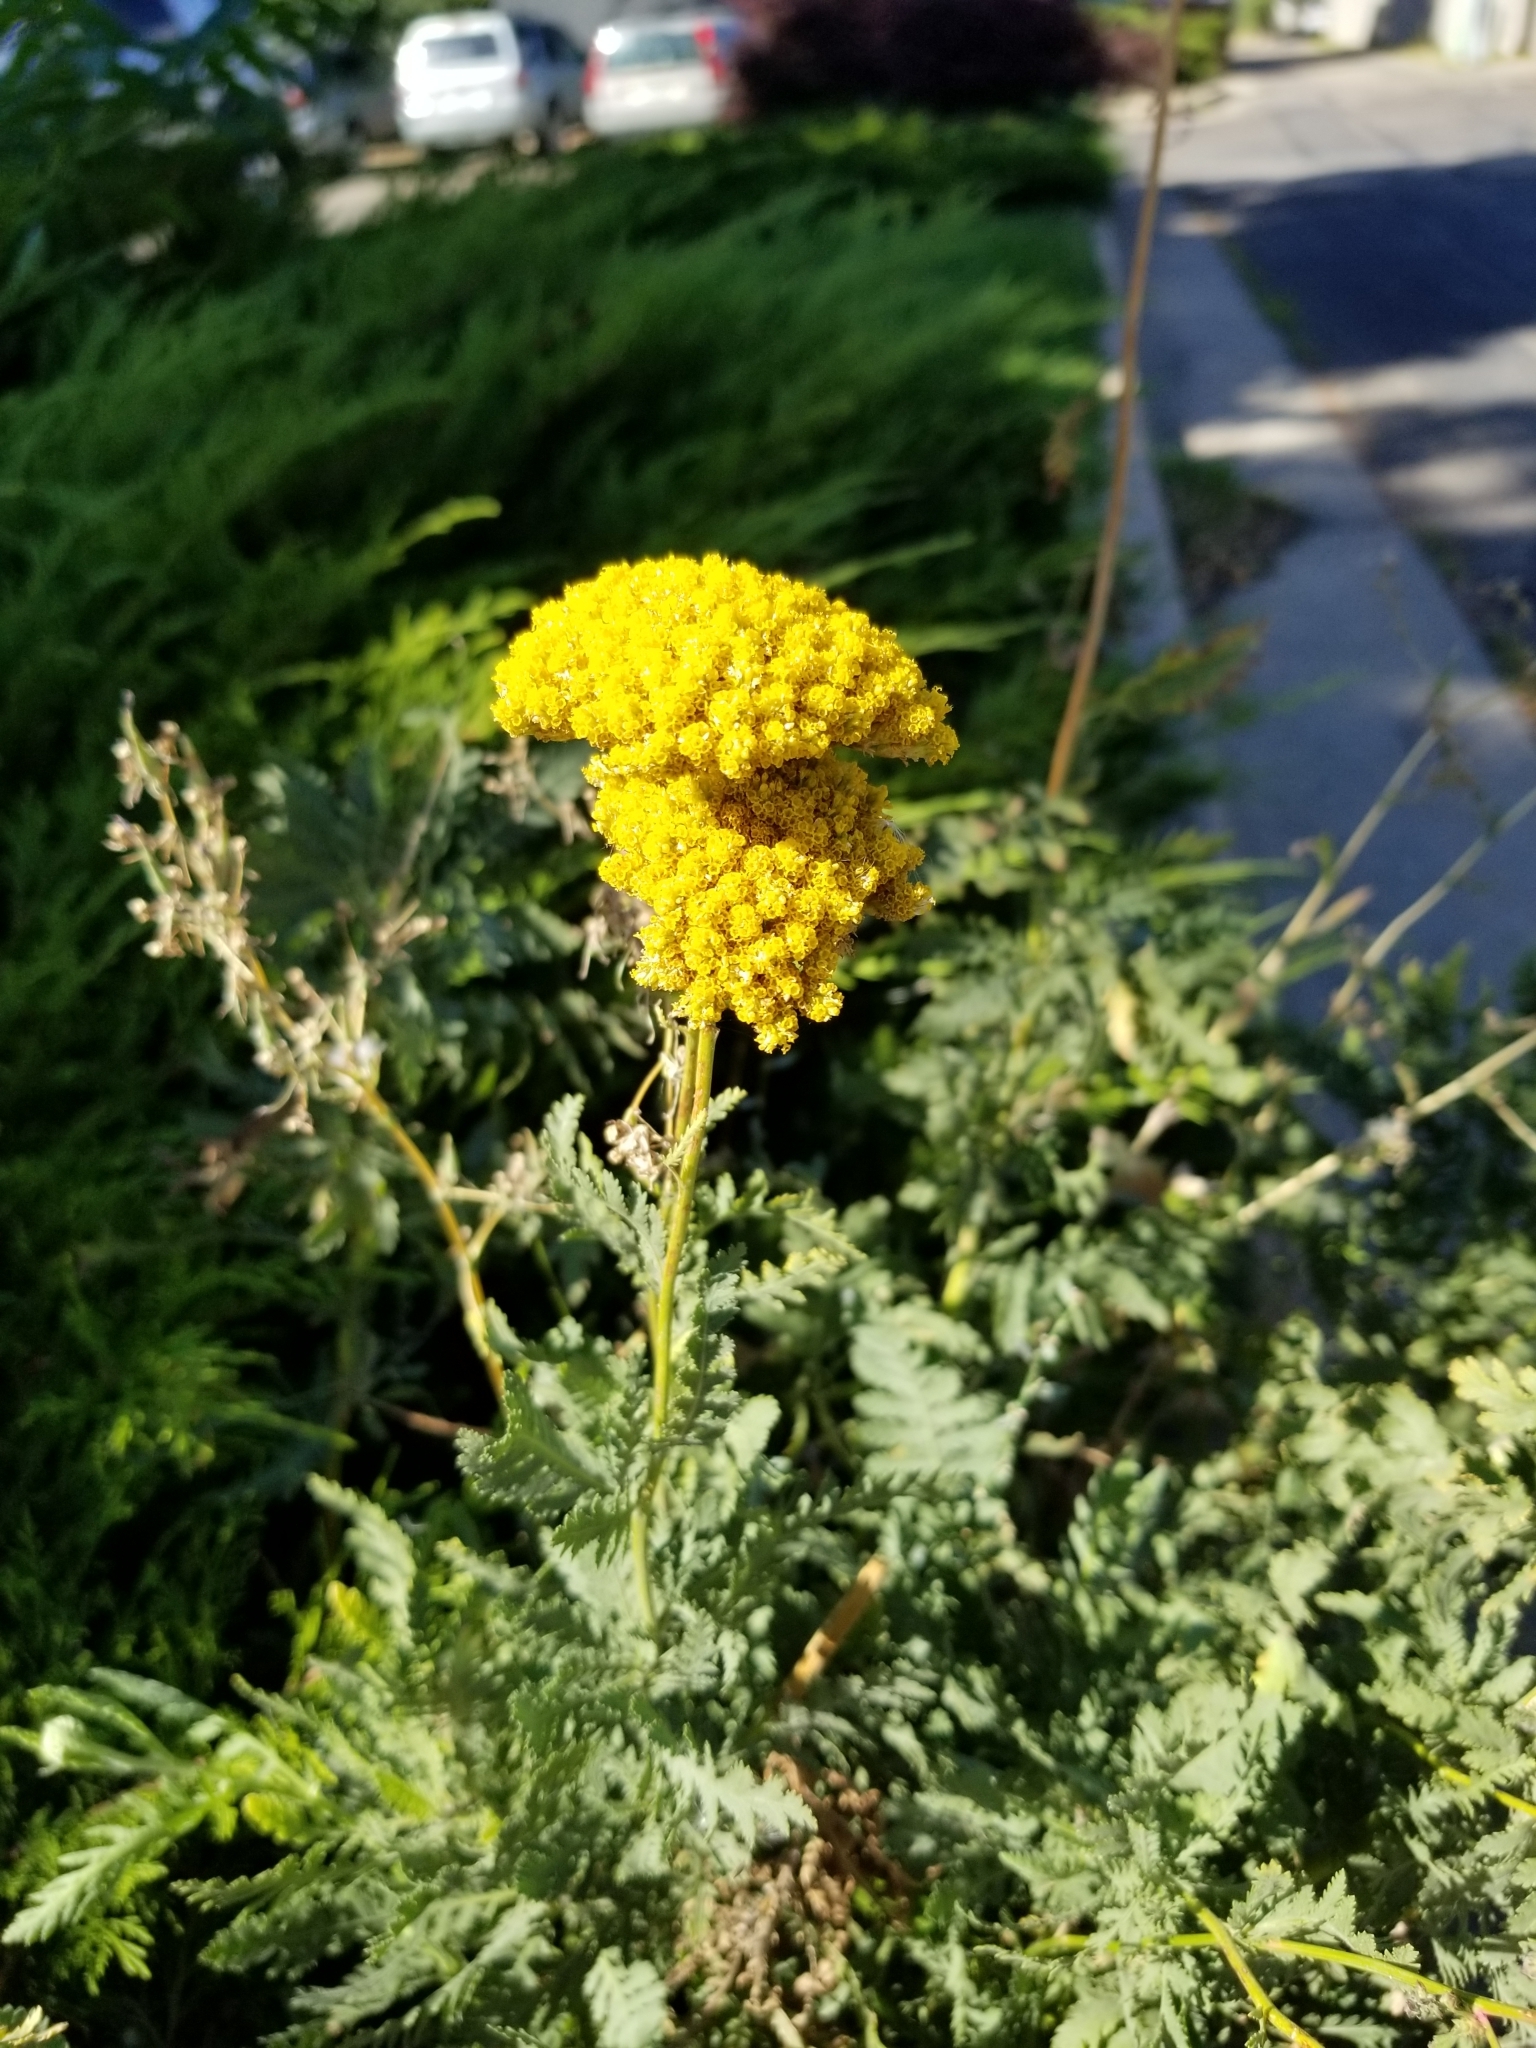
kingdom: Plantae
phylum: Tracheophyta
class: Magnoliopsida
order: Asterales
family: Asteraceae
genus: Achillea
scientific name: Achillea filipendulina
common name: Fernleaf yarrow
